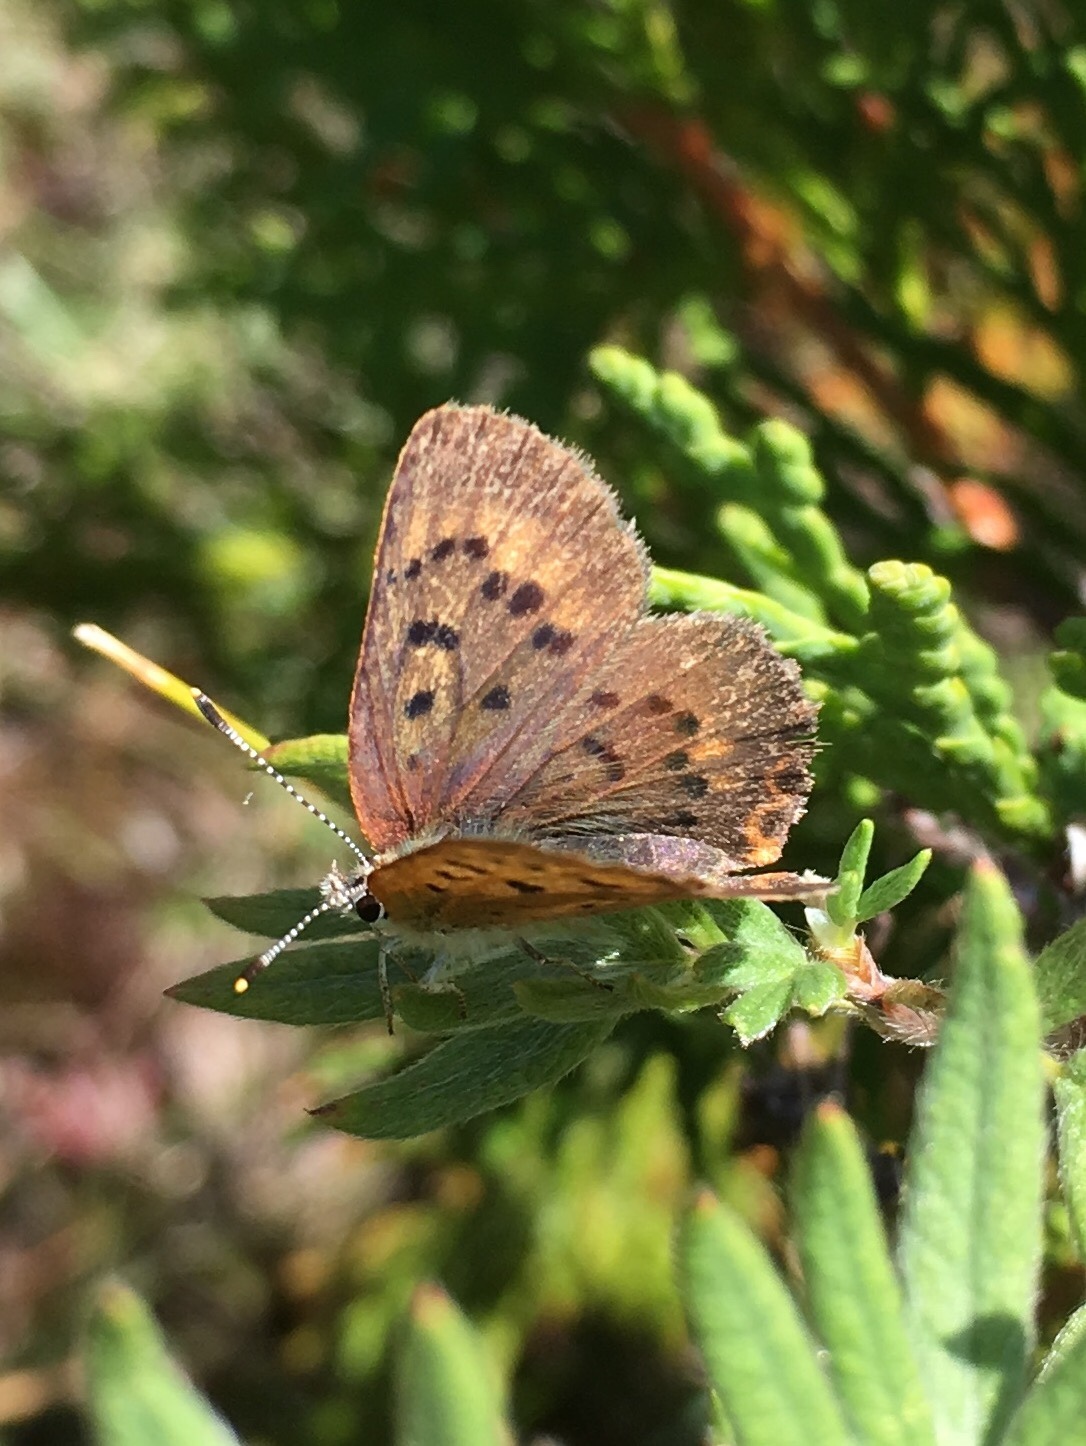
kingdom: Animalia
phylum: Arthropoda
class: Insecta
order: Lepidoptera
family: Lycaenidae
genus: Tharsalea
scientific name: Tharsalea dorcas
